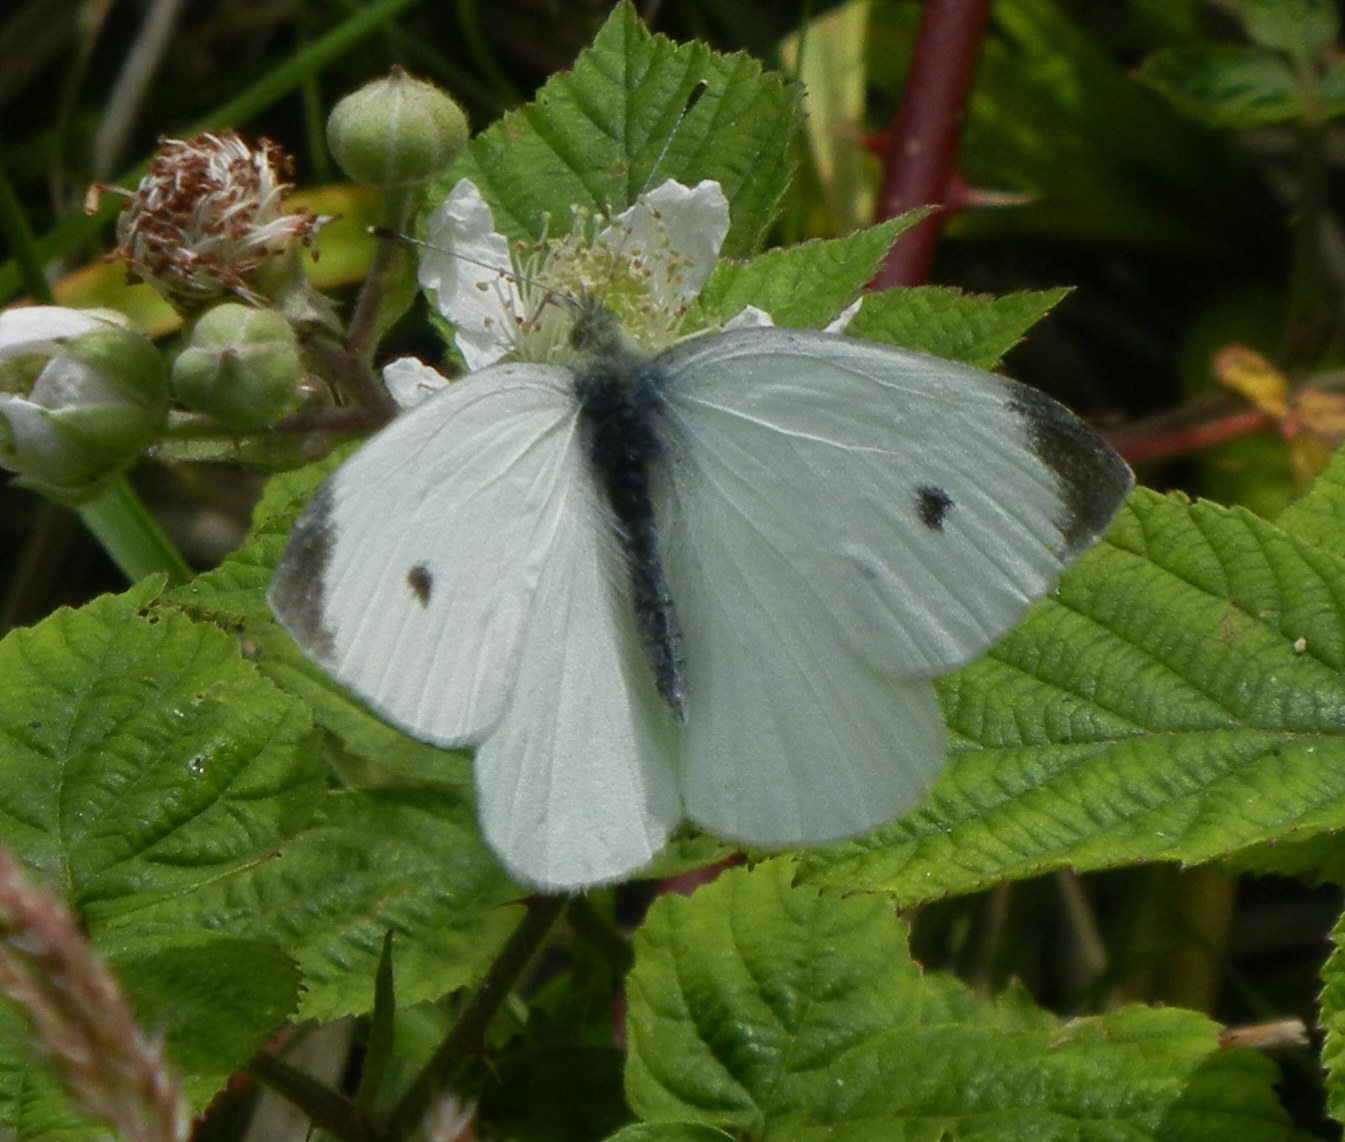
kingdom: Animalia
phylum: Arthropoda
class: Insecta
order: Lepidoptera
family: Pieridae
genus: Pieris
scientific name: Pieris rapae
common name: Small white
